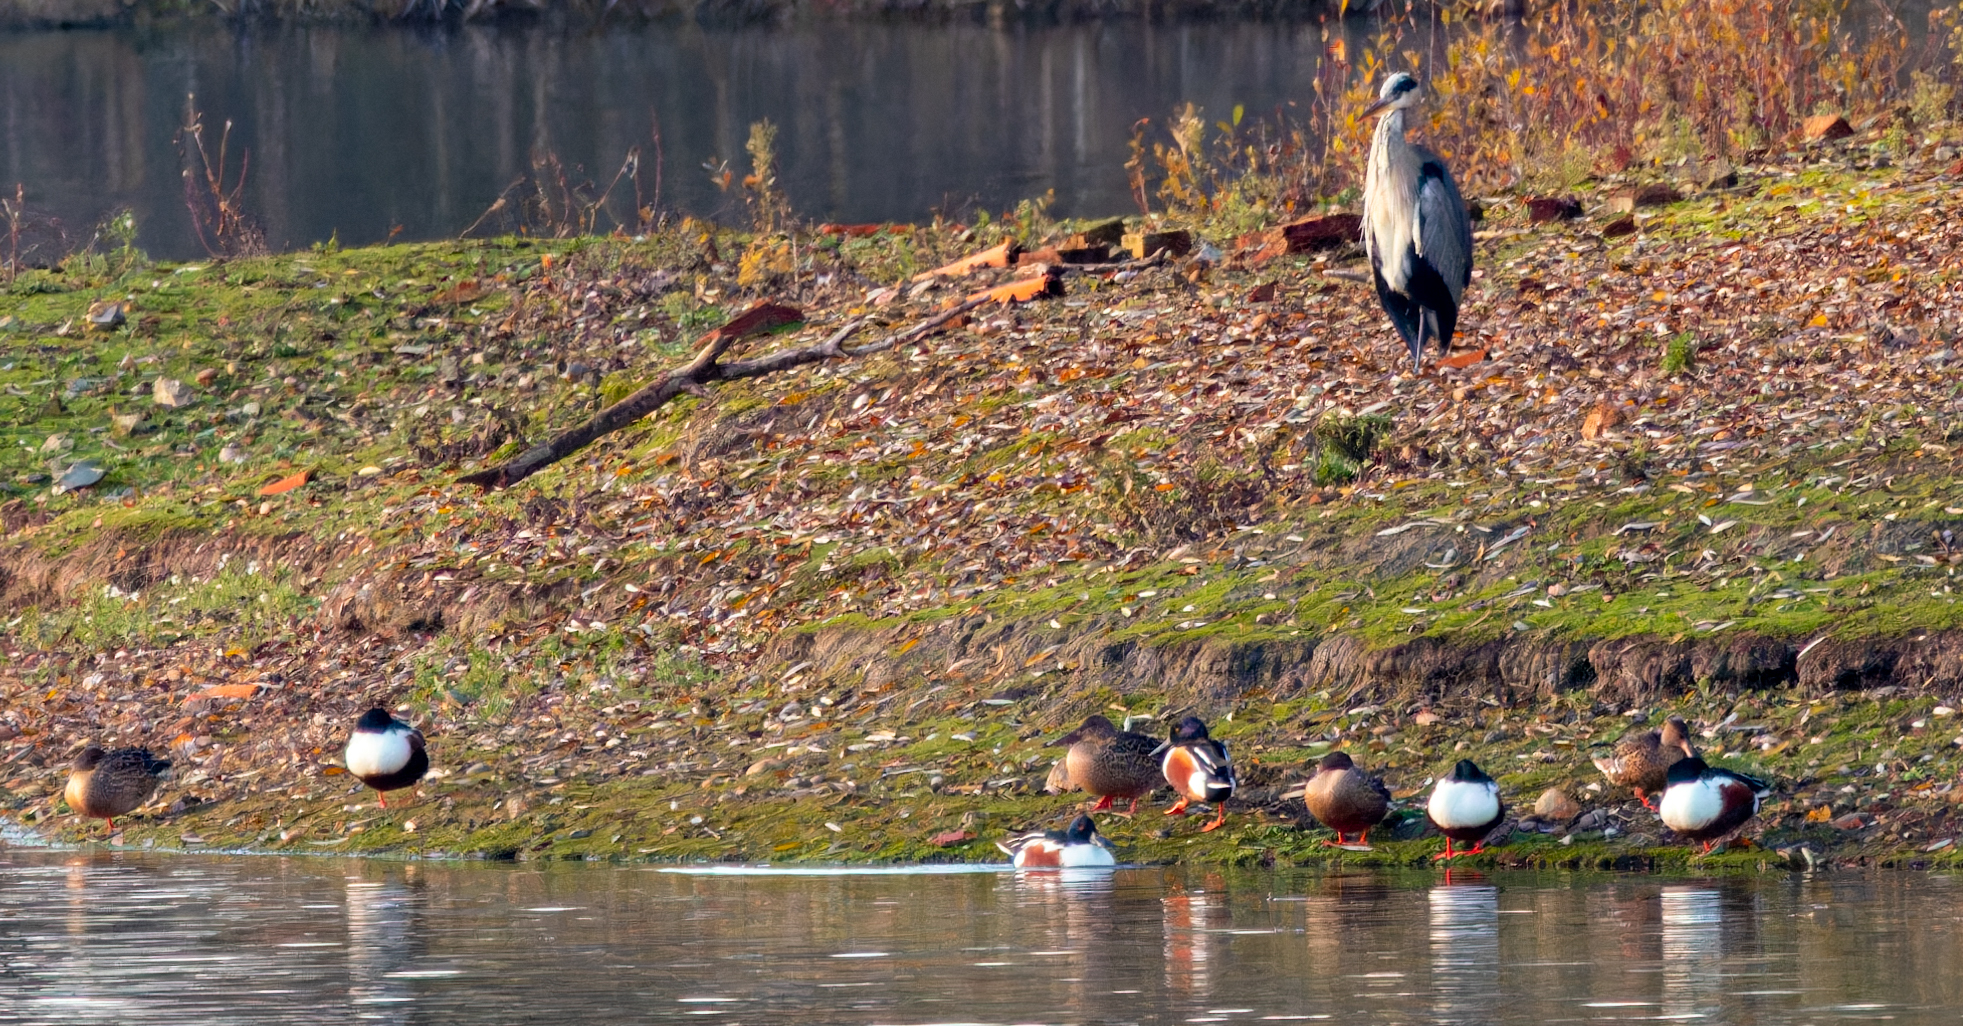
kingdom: Animalia
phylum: Chordata
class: Aves
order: Anseriformes
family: Anatidae
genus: Spatula
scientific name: Spatula clypeata
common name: Northern shoveler
